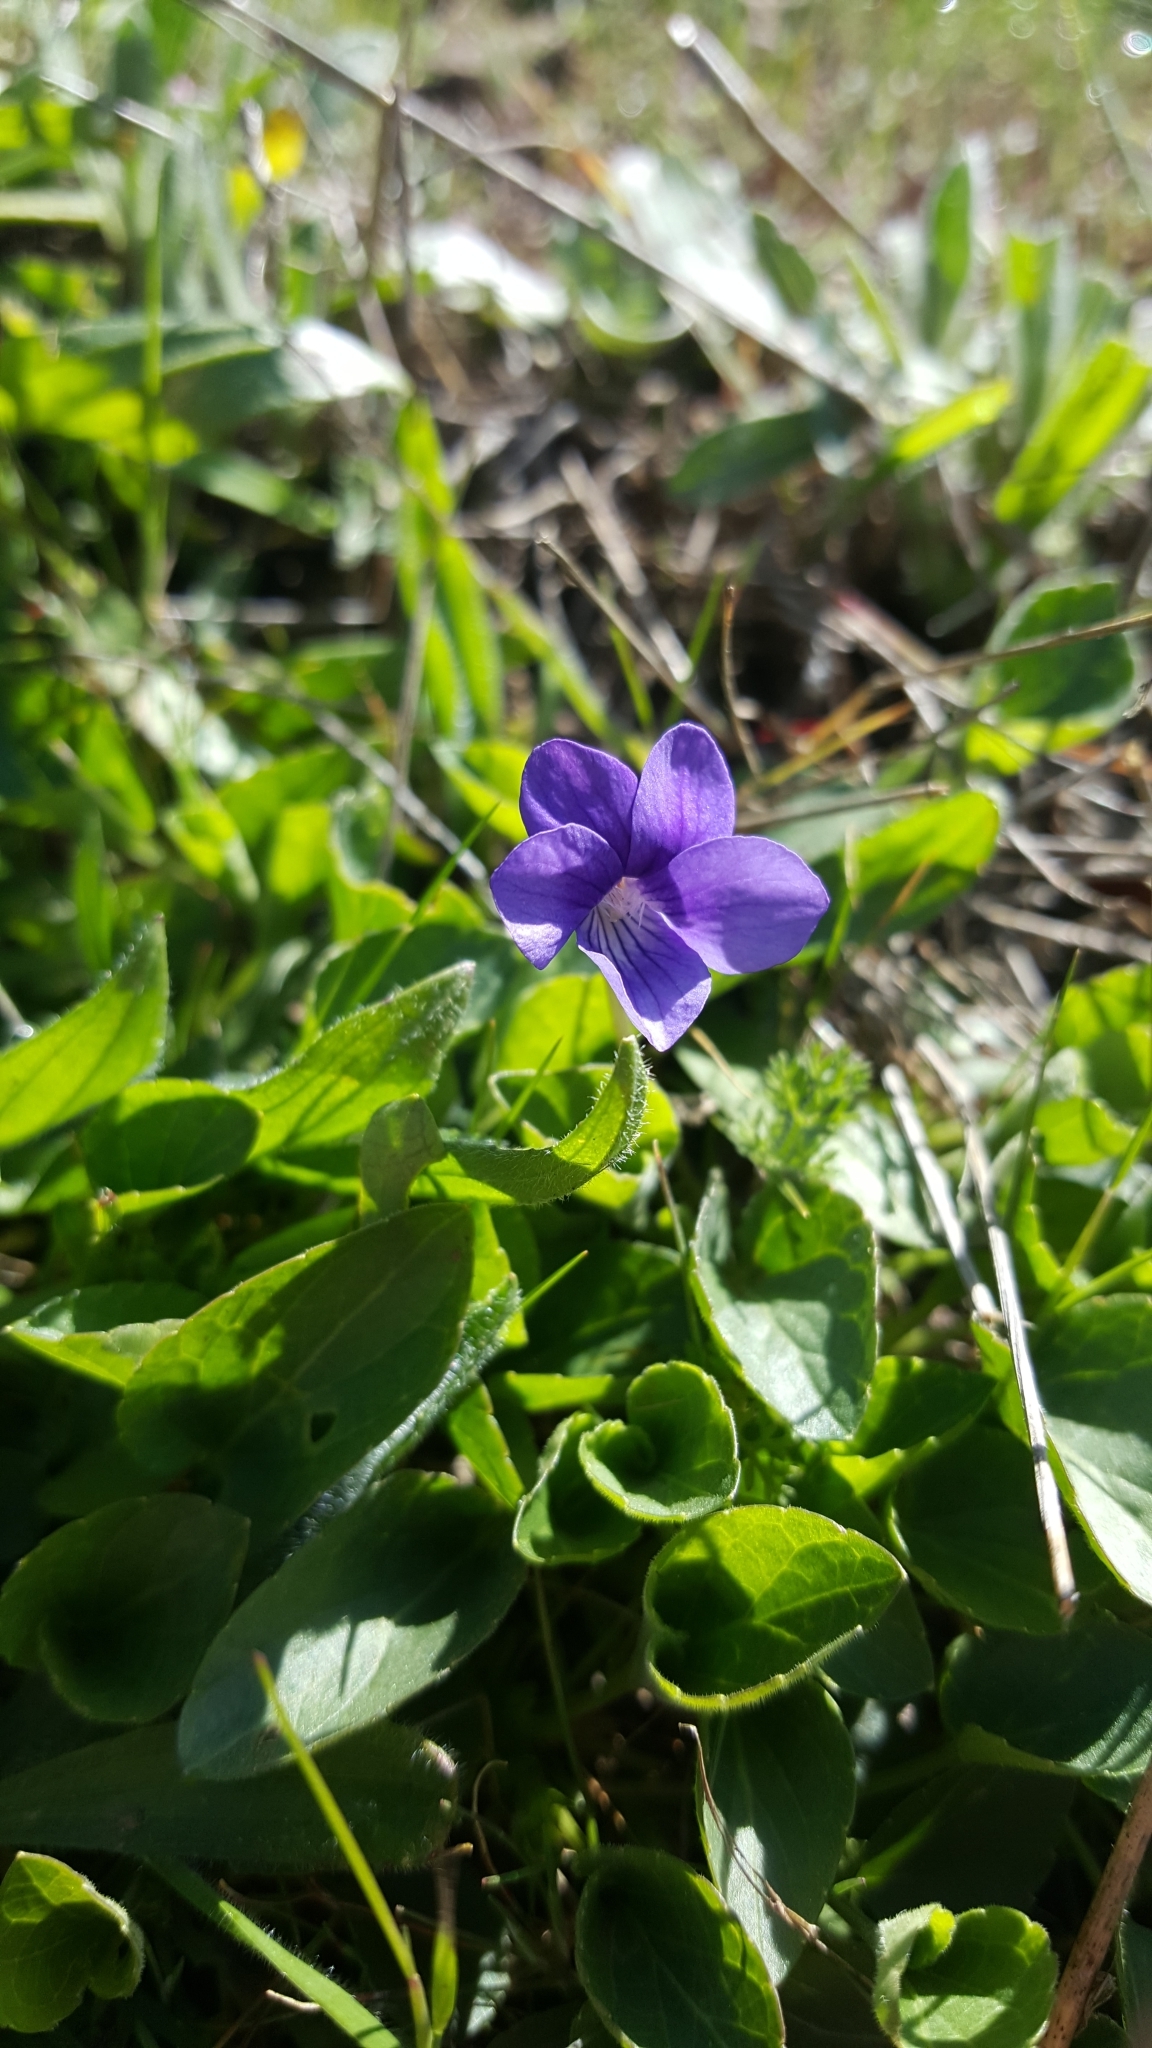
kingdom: Plantae
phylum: Tracheophyta
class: Magnoliopsida
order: Malpighiales
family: Violaceae
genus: Viola
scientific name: Viola adunca
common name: Sand violet
